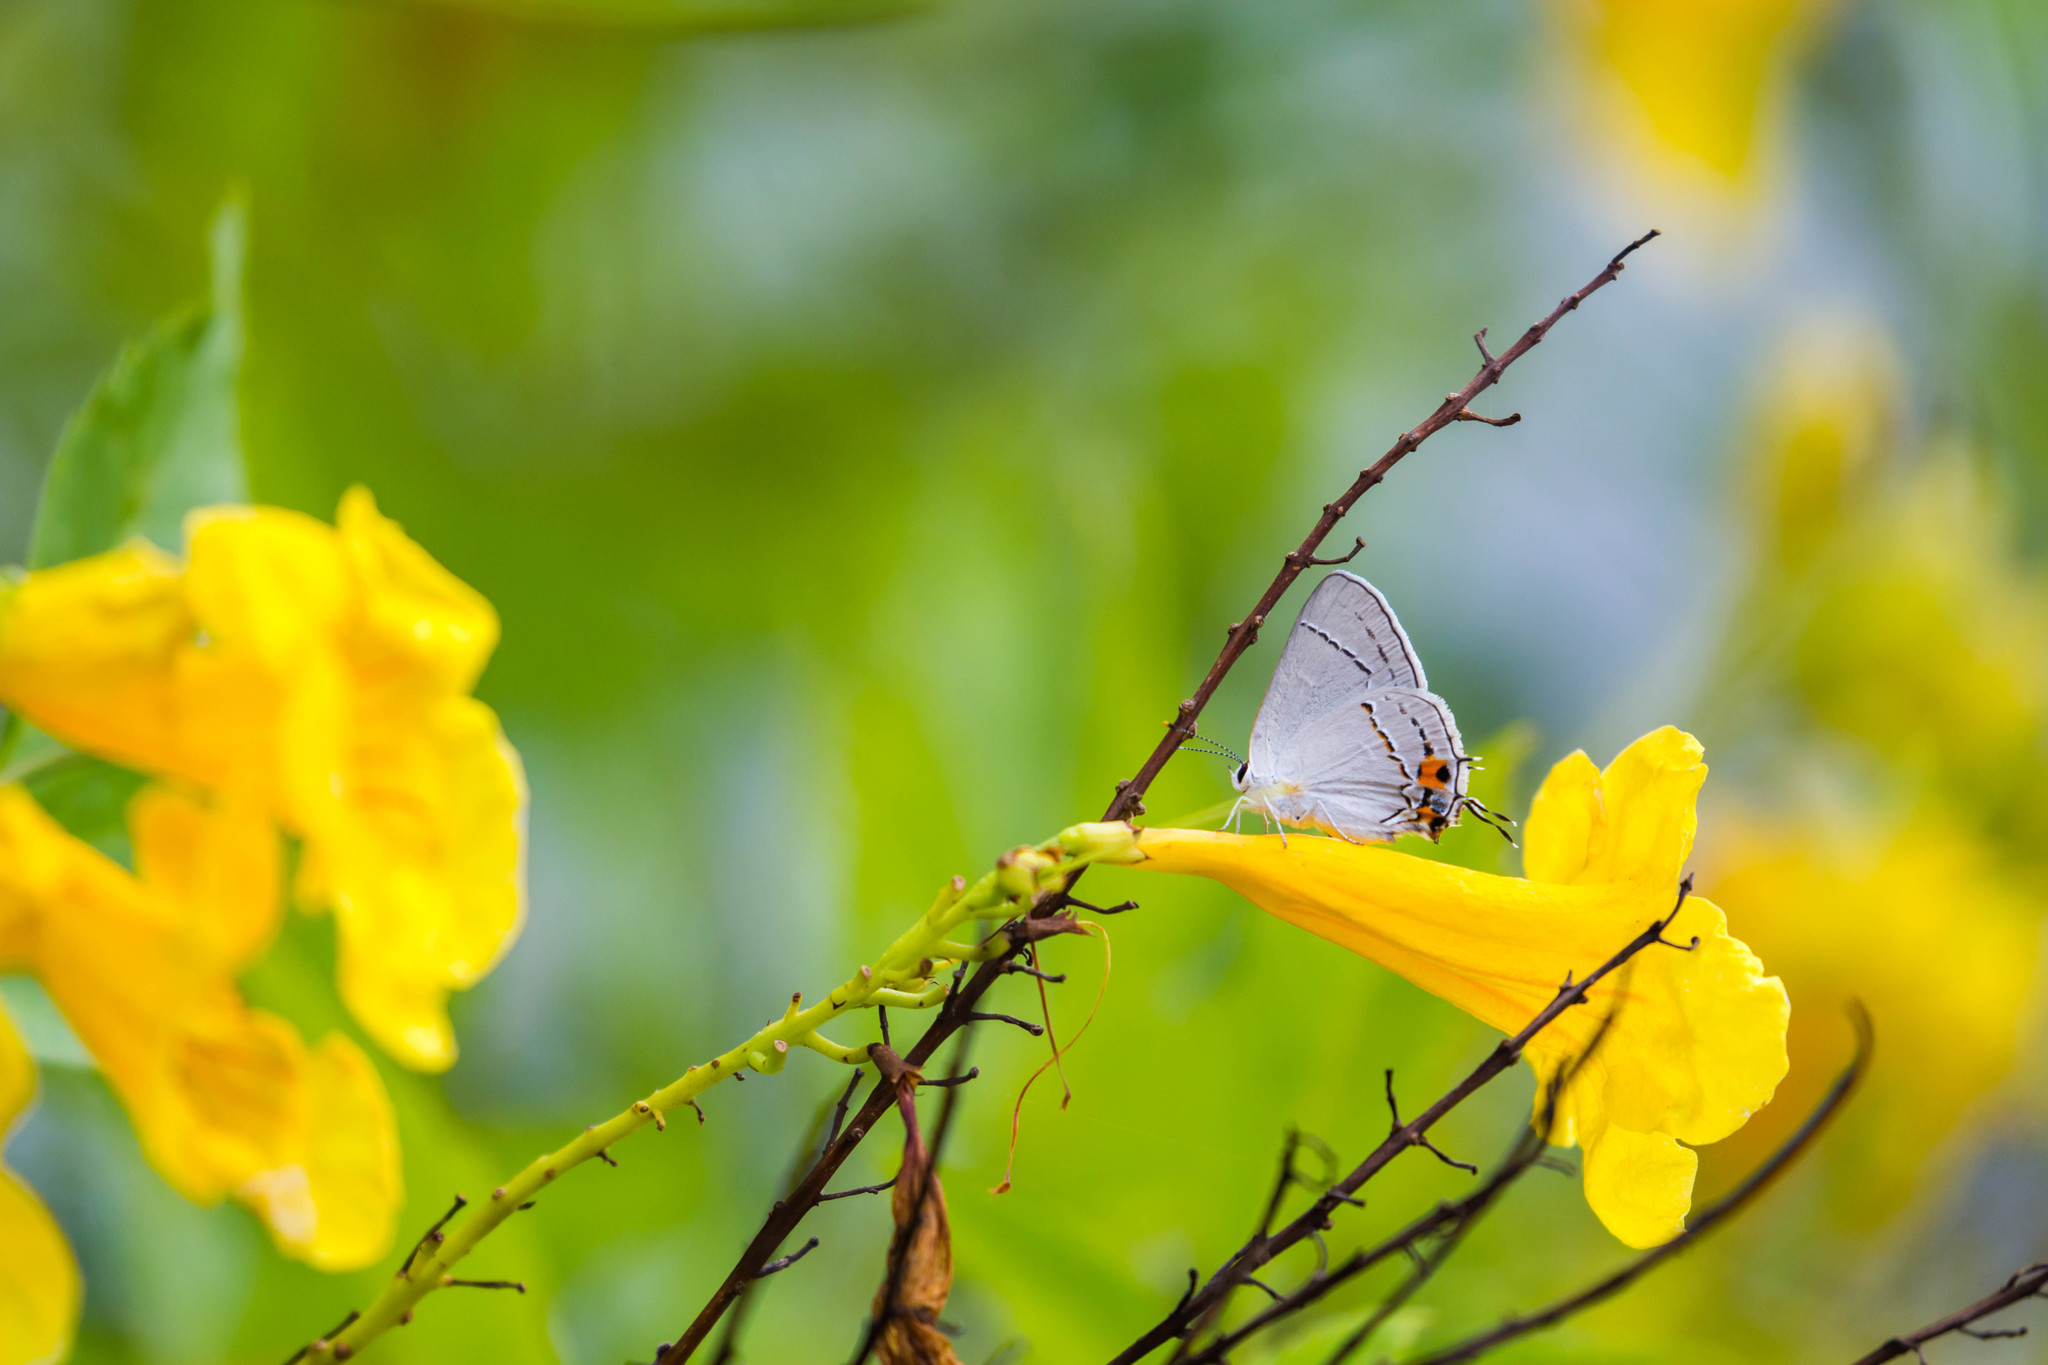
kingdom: Animalia
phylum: Arthropoda
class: Insecta
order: Lepidoptera
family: Lycaenidae
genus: Strymon
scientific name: Strymon melinus
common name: Gray hairstreak
